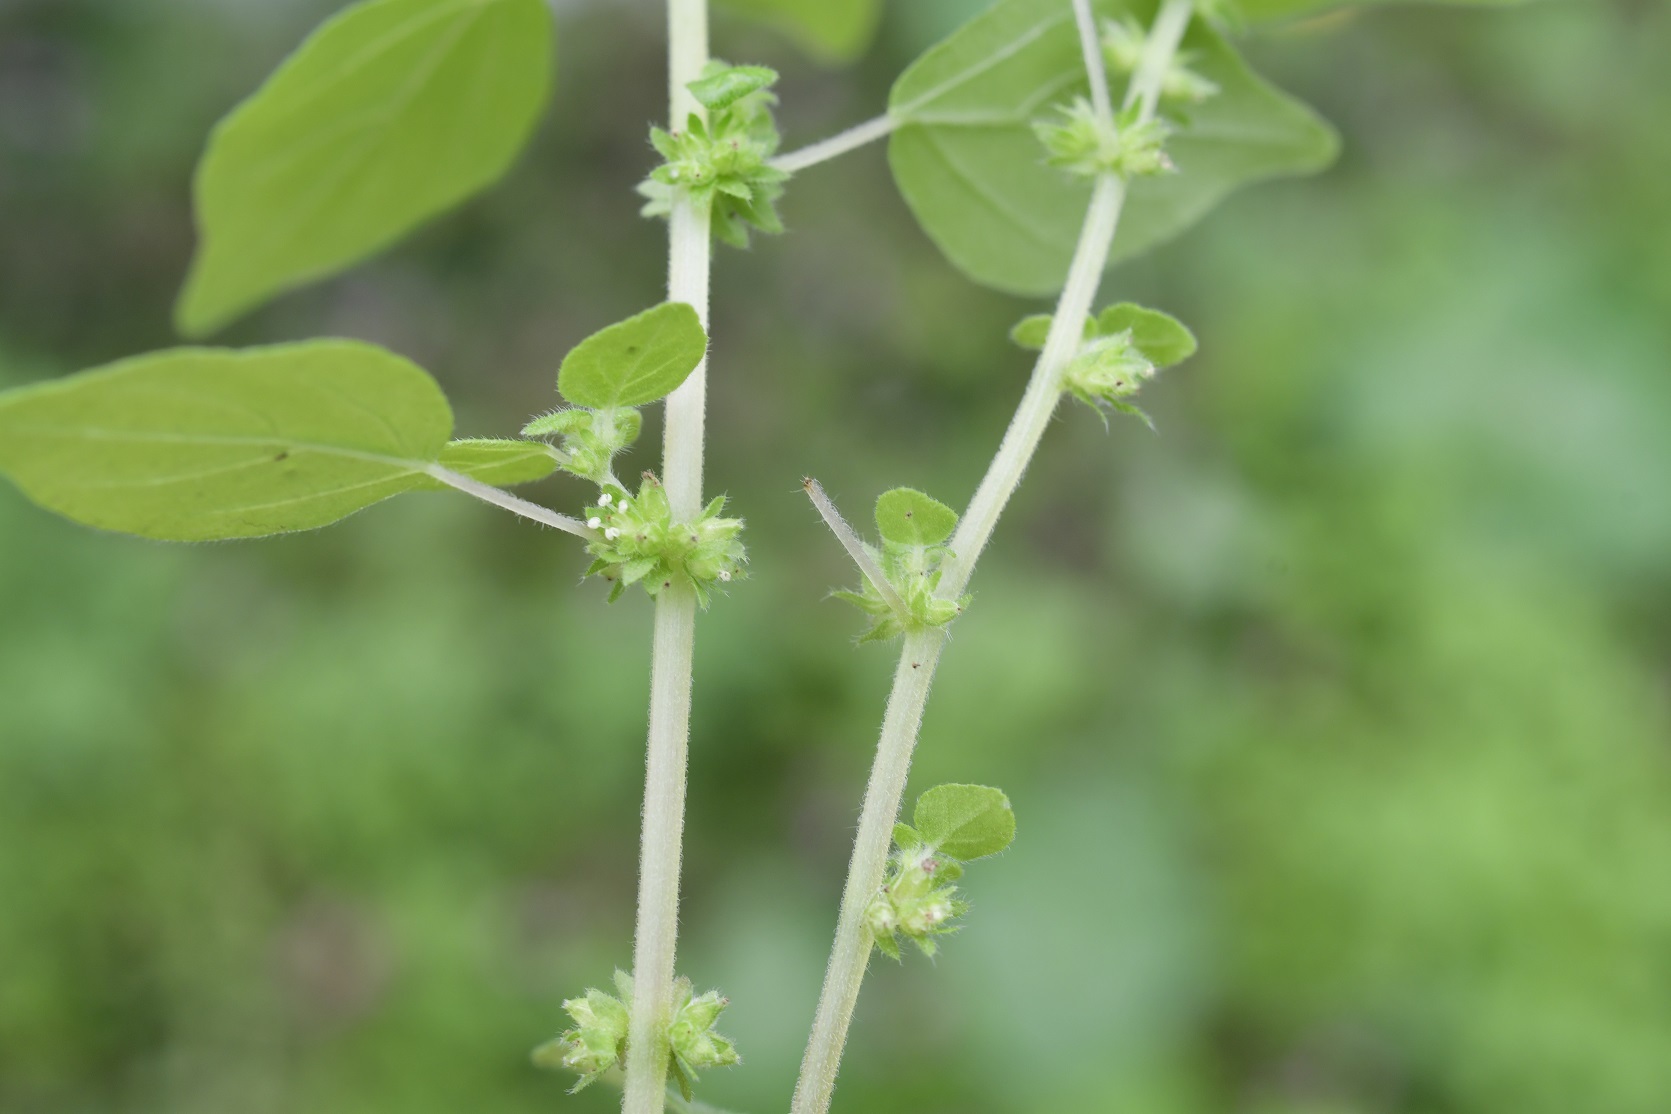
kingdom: Plantae
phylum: Tracheophyta
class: Magnoliopsida
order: Rosales
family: Urticaceae
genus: Parietaria
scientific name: Parietaria debilis
